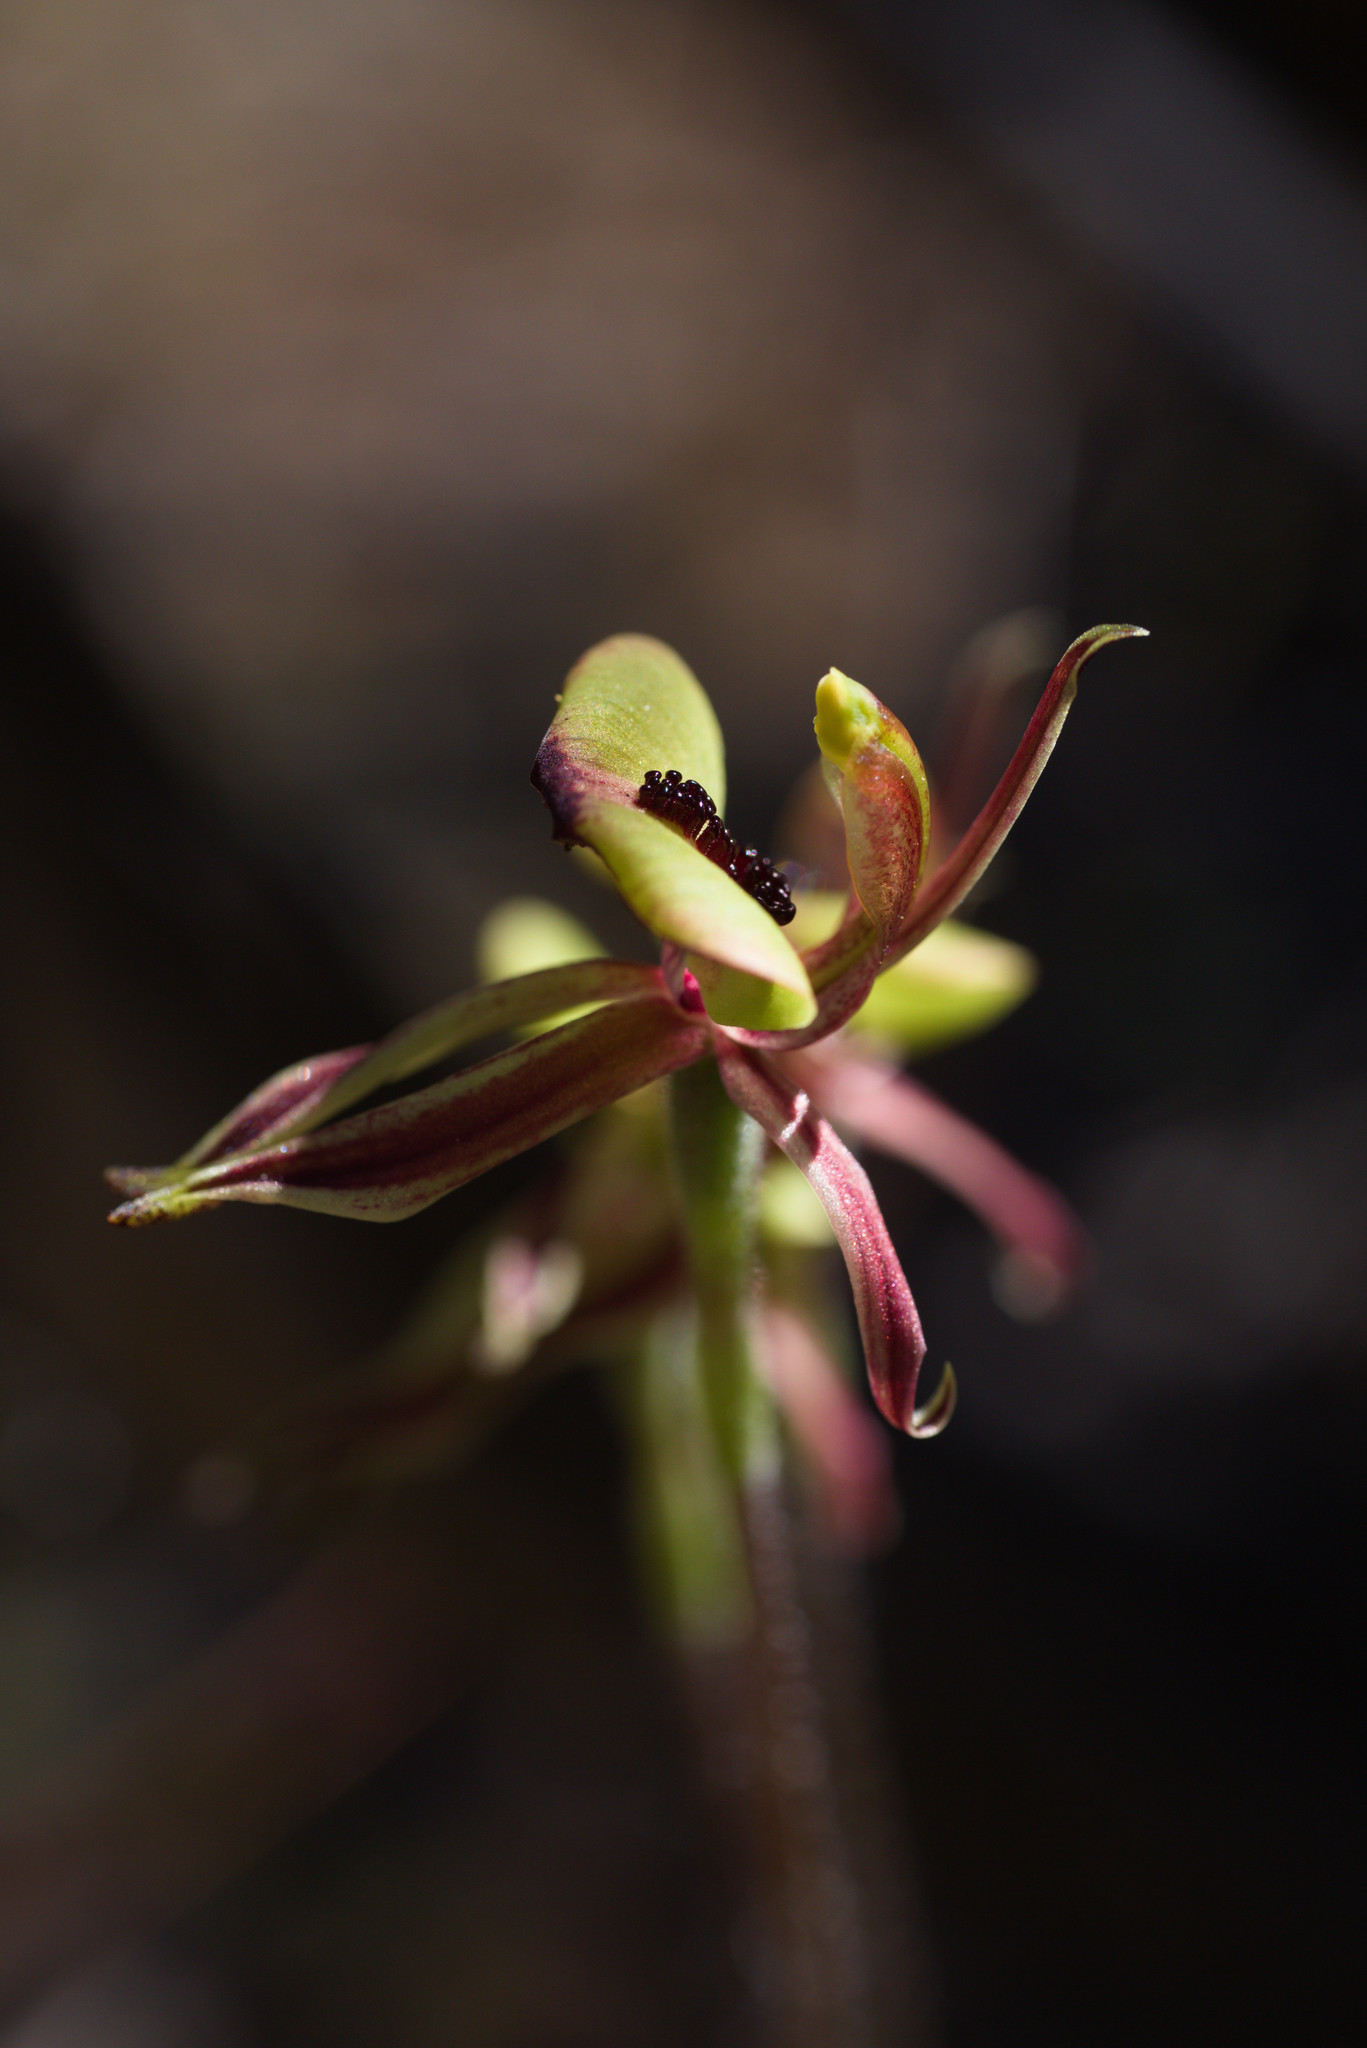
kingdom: Plantae
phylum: Tracheophyta
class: Liliopsida
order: Asparagales
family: Orchidaceae
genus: Caladenia
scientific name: Caladenia roei
